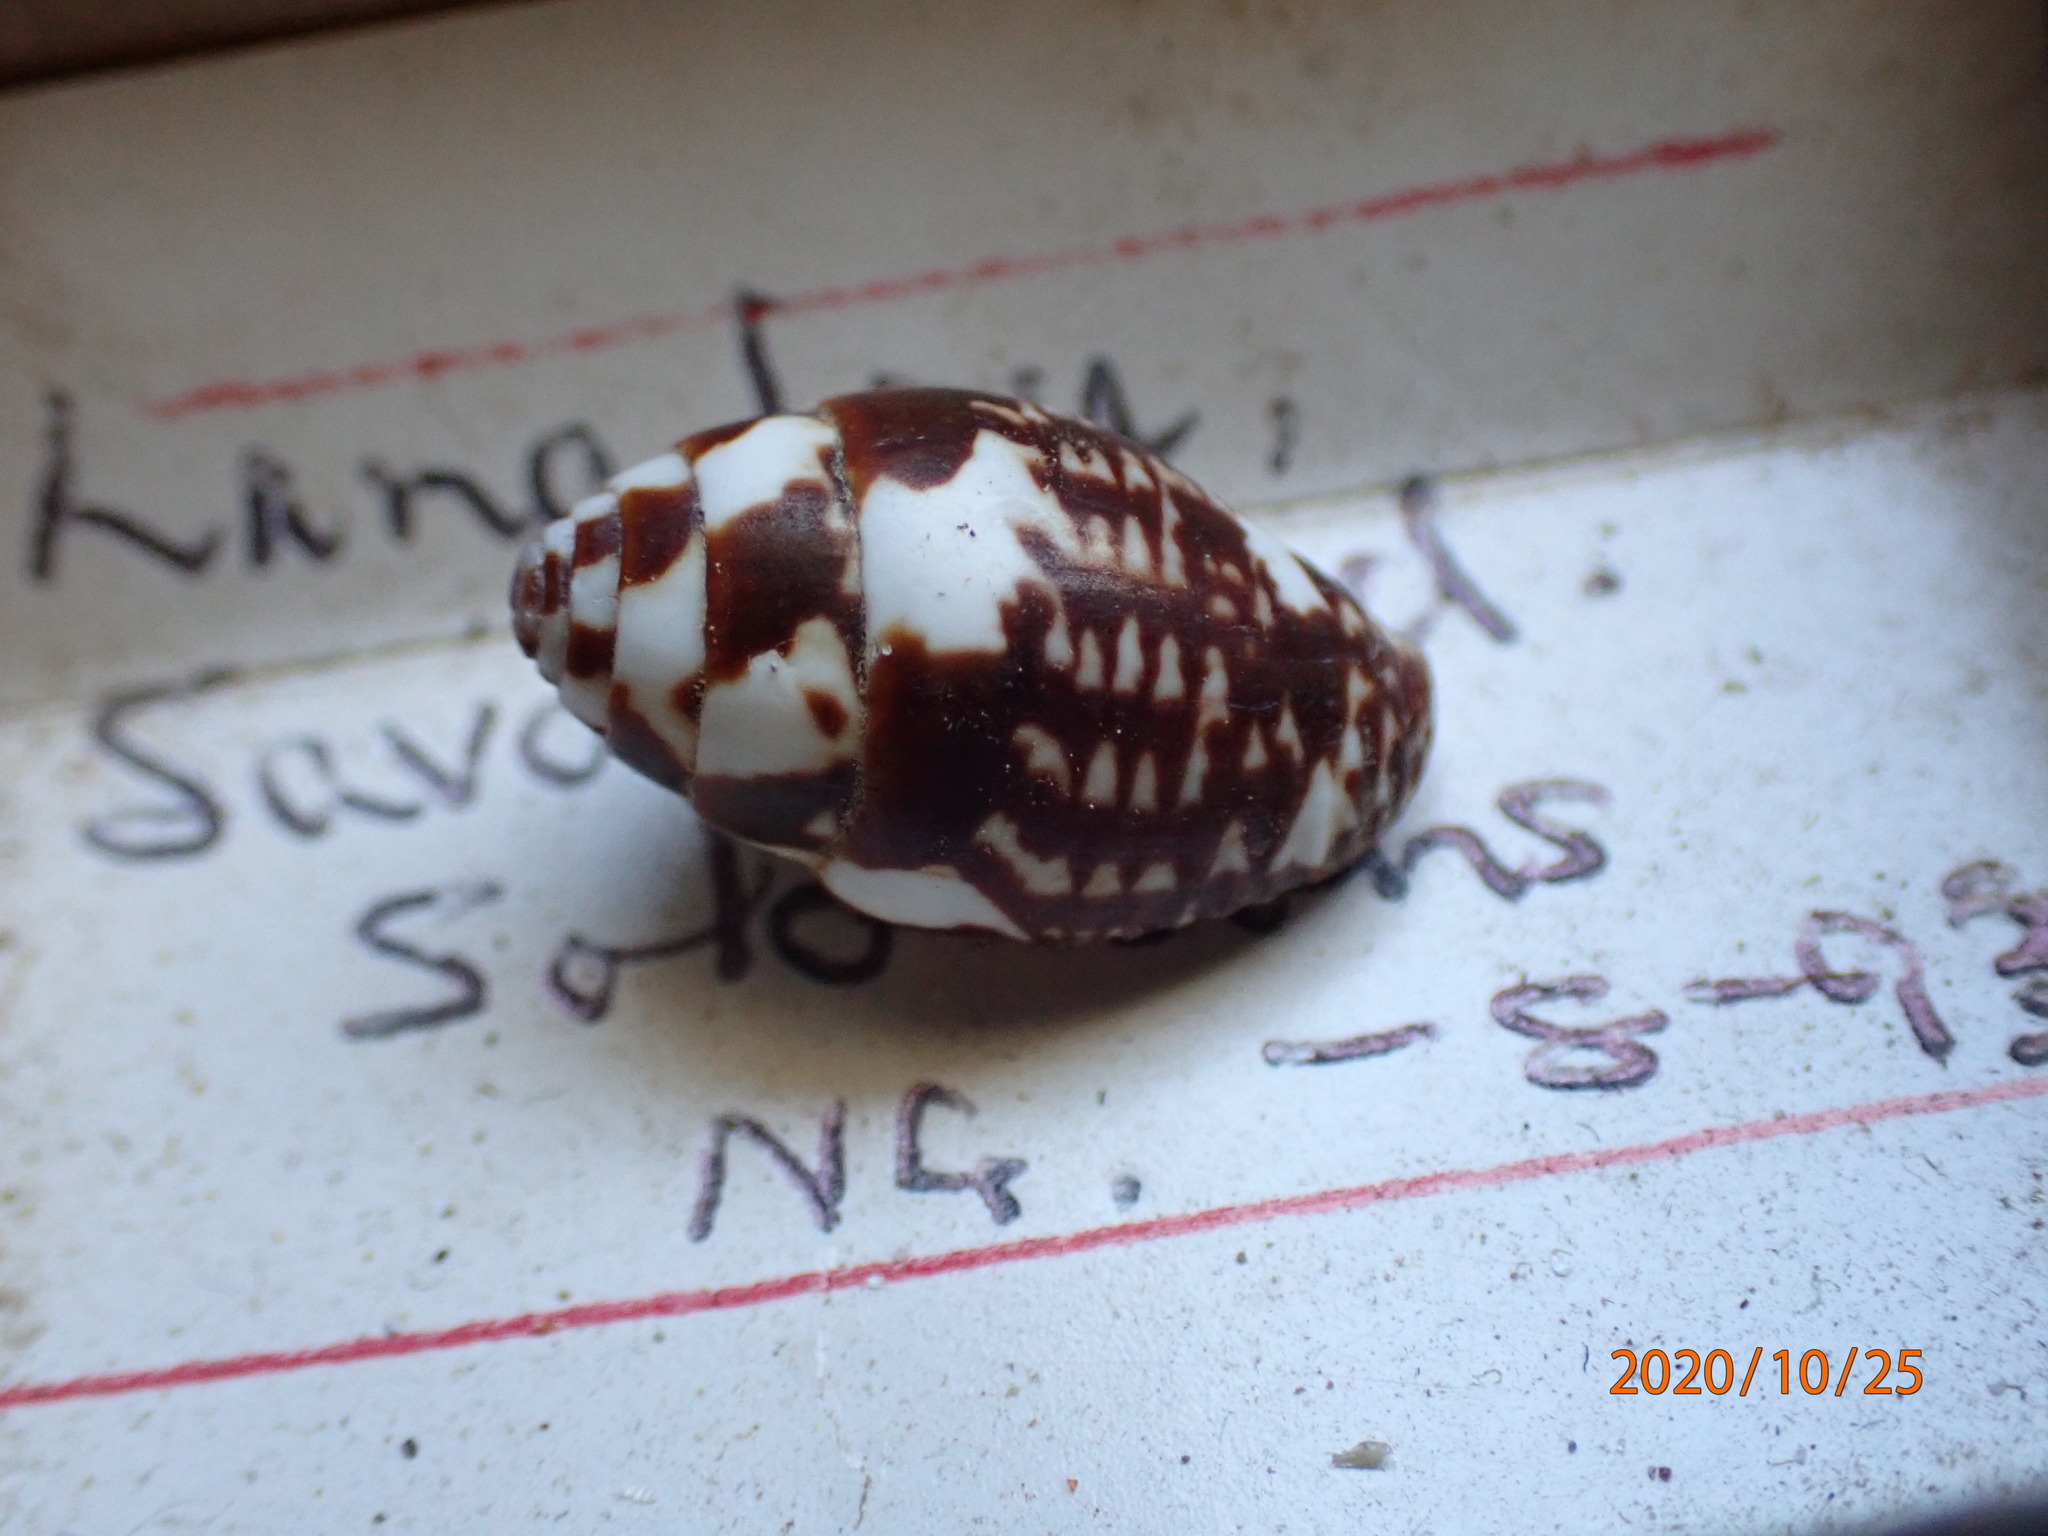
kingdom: Animalia
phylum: Mollusca
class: Gastropoda
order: Neogastropoda
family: Columbellidae
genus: Pyrene
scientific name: Pyrene punctata
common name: Punctate dovesnail
